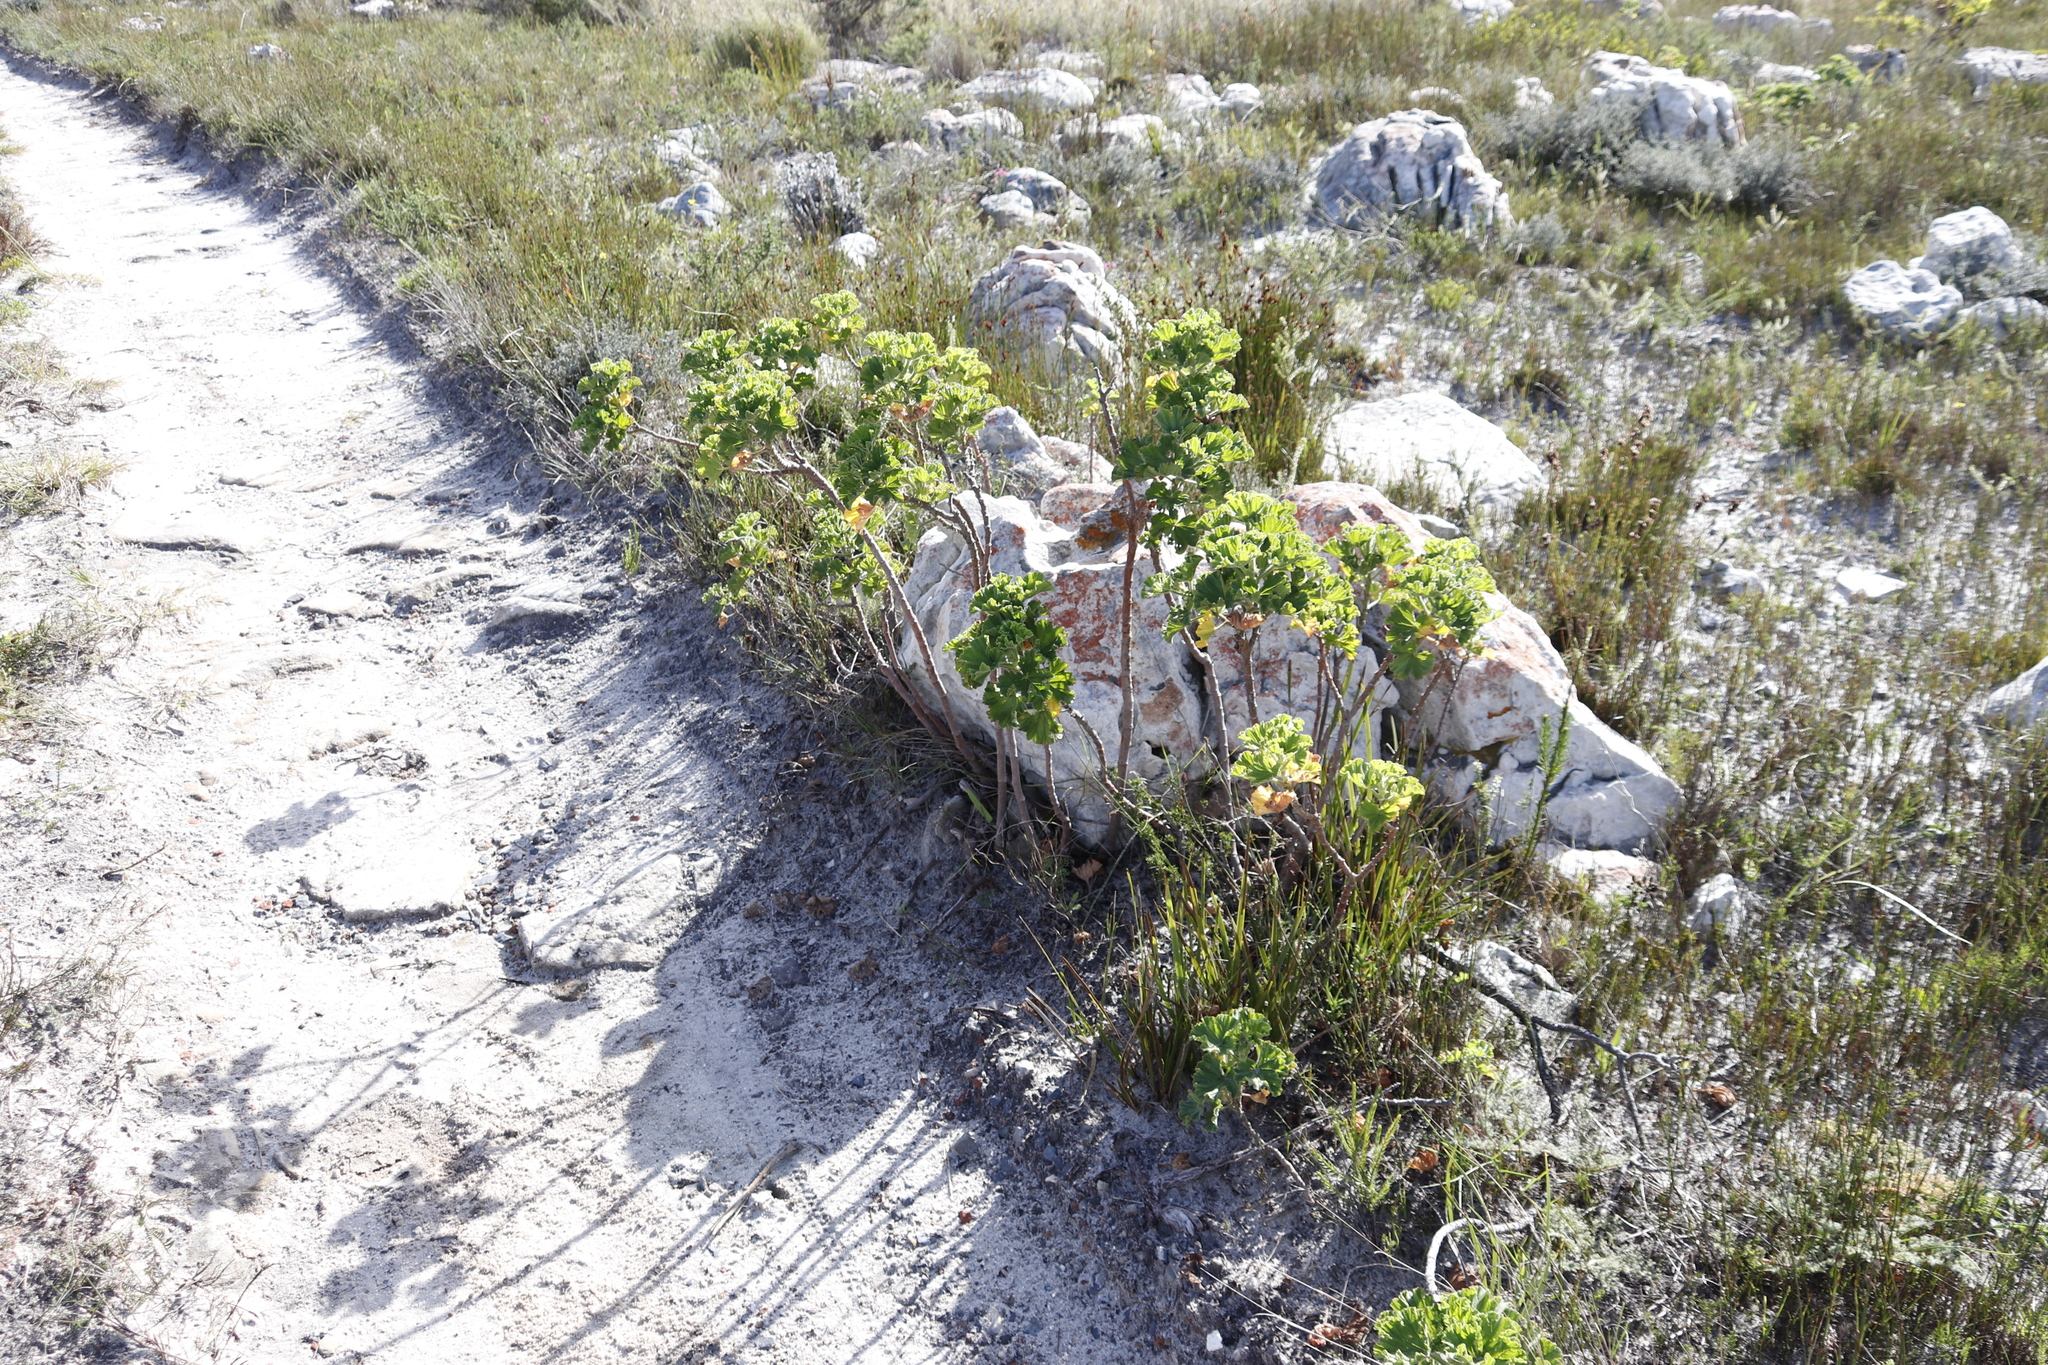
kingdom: Plantae
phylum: Tracheophyta
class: Magnoliopsida
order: Geraniales
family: Geraniaceae
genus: Pelargonium
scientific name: Pelargonium cucullatum
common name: Tree pelargonium
